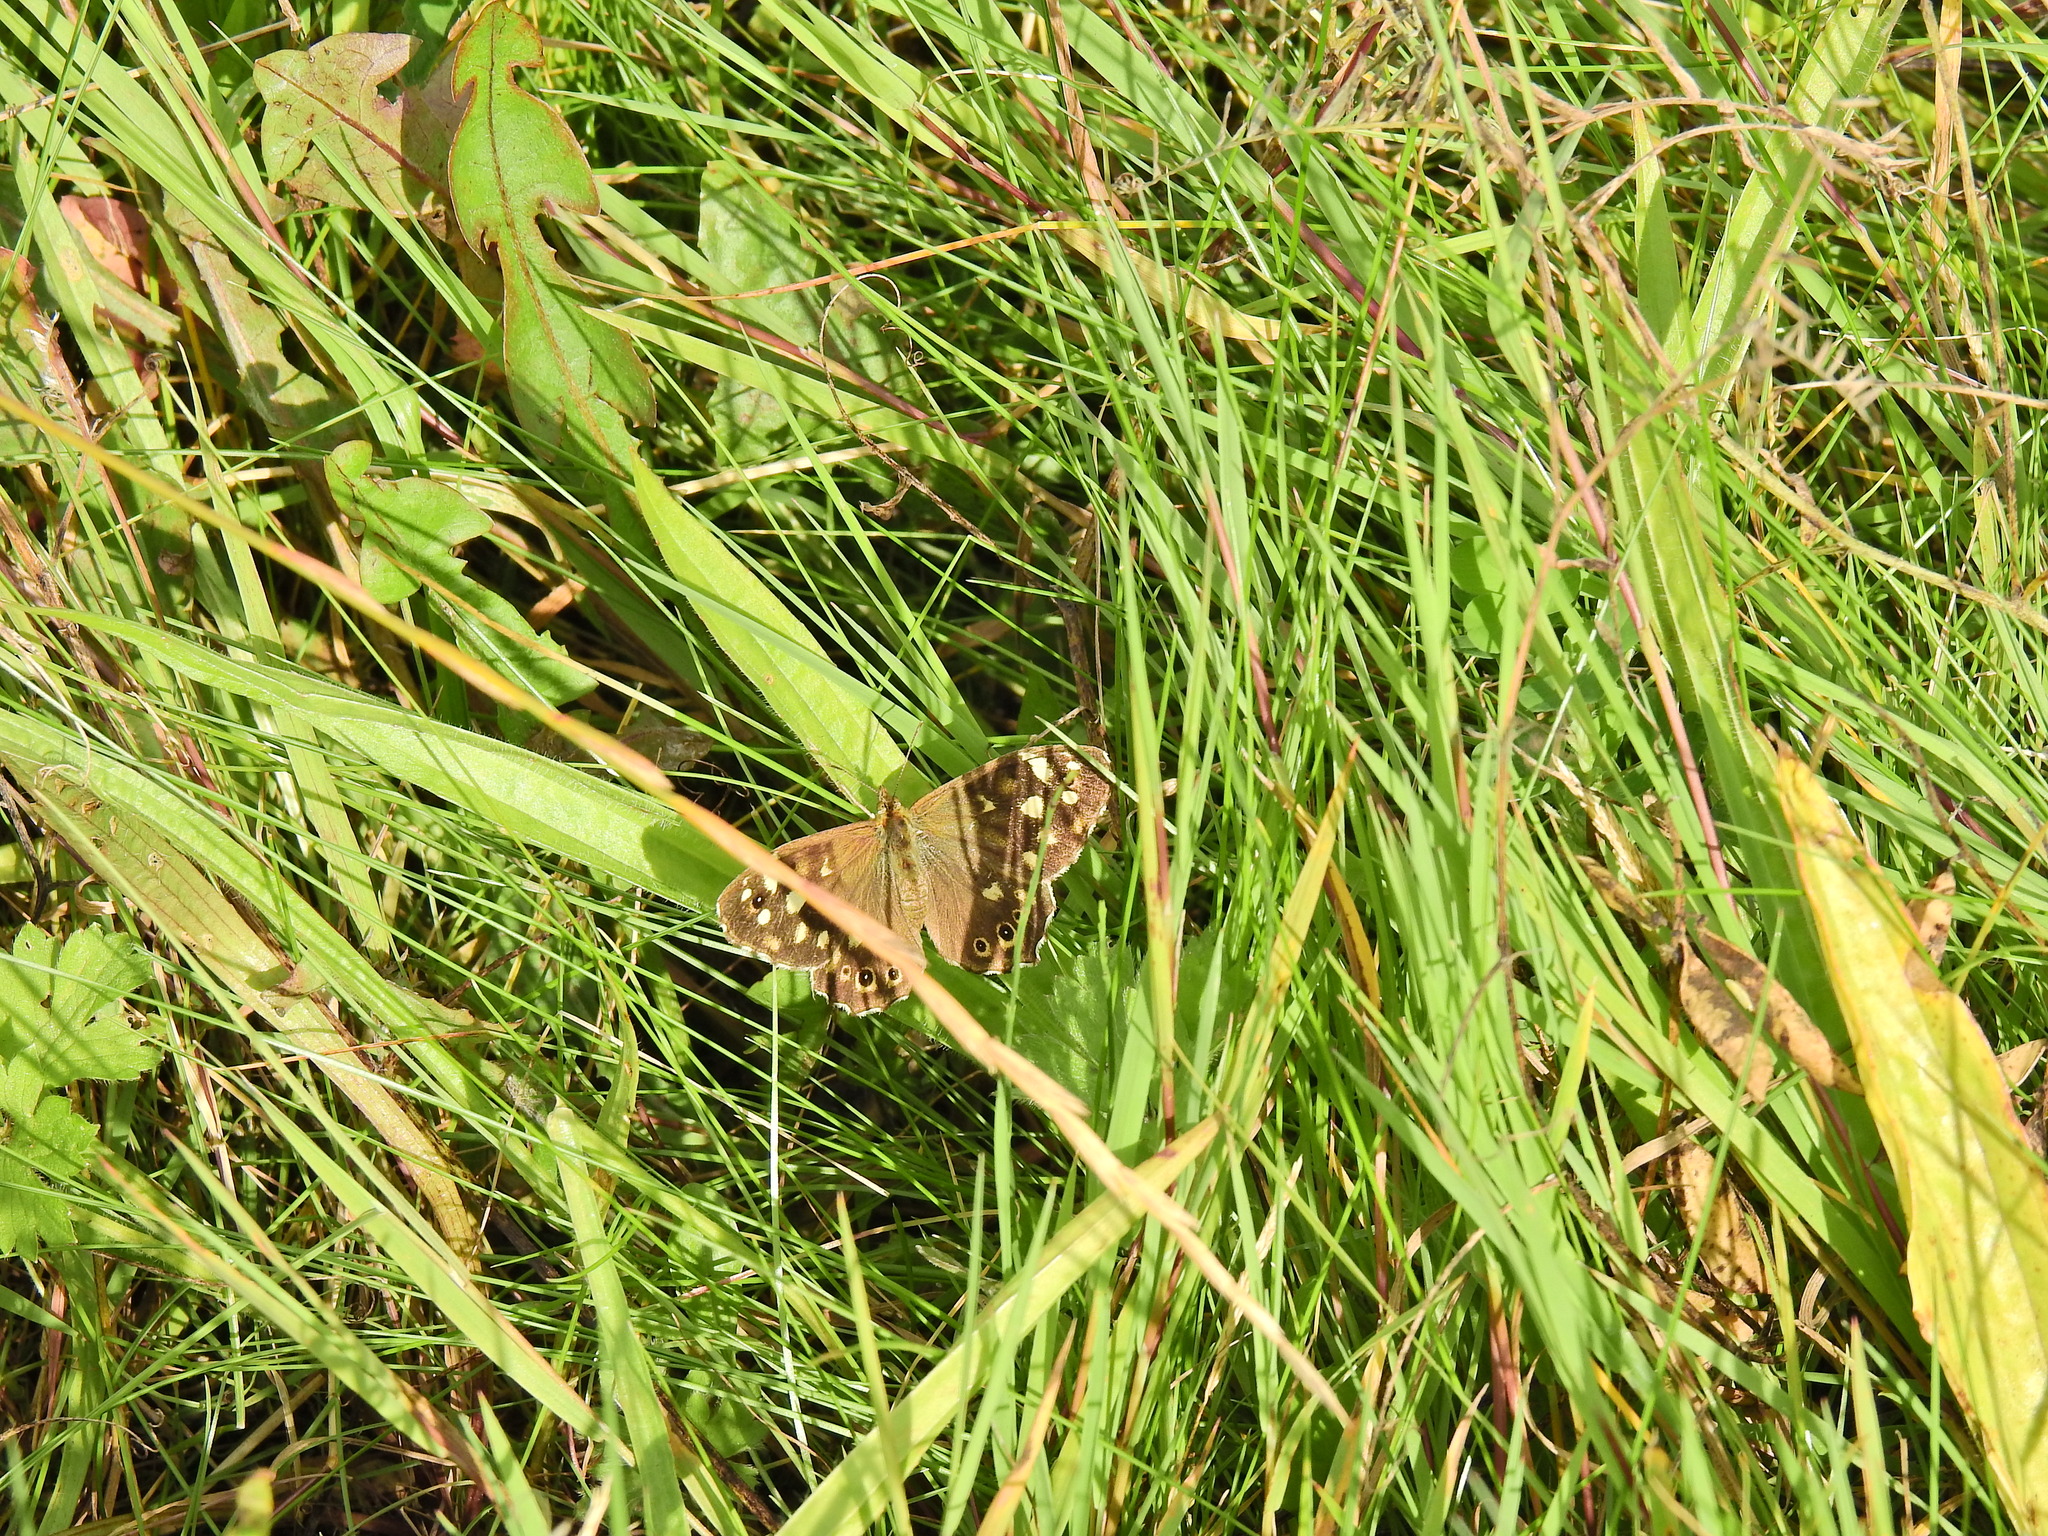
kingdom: Animalia
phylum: Arthropoda
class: Insecta
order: Lepidoptera
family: Nymphalidae
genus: Pararge
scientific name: Pararge aegeria
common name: Speckled wood
